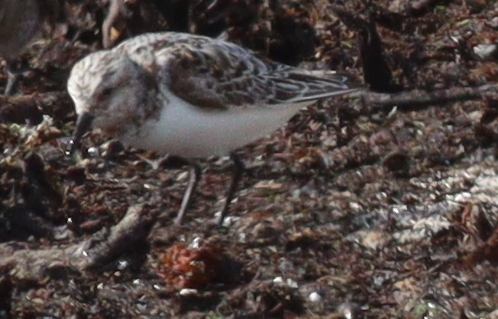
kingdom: Animalia
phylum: Chordata
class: Aves
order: Charadriiformes
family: Scolopacidae
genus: Calidris
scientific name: Calidris alba
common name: Sanderling
